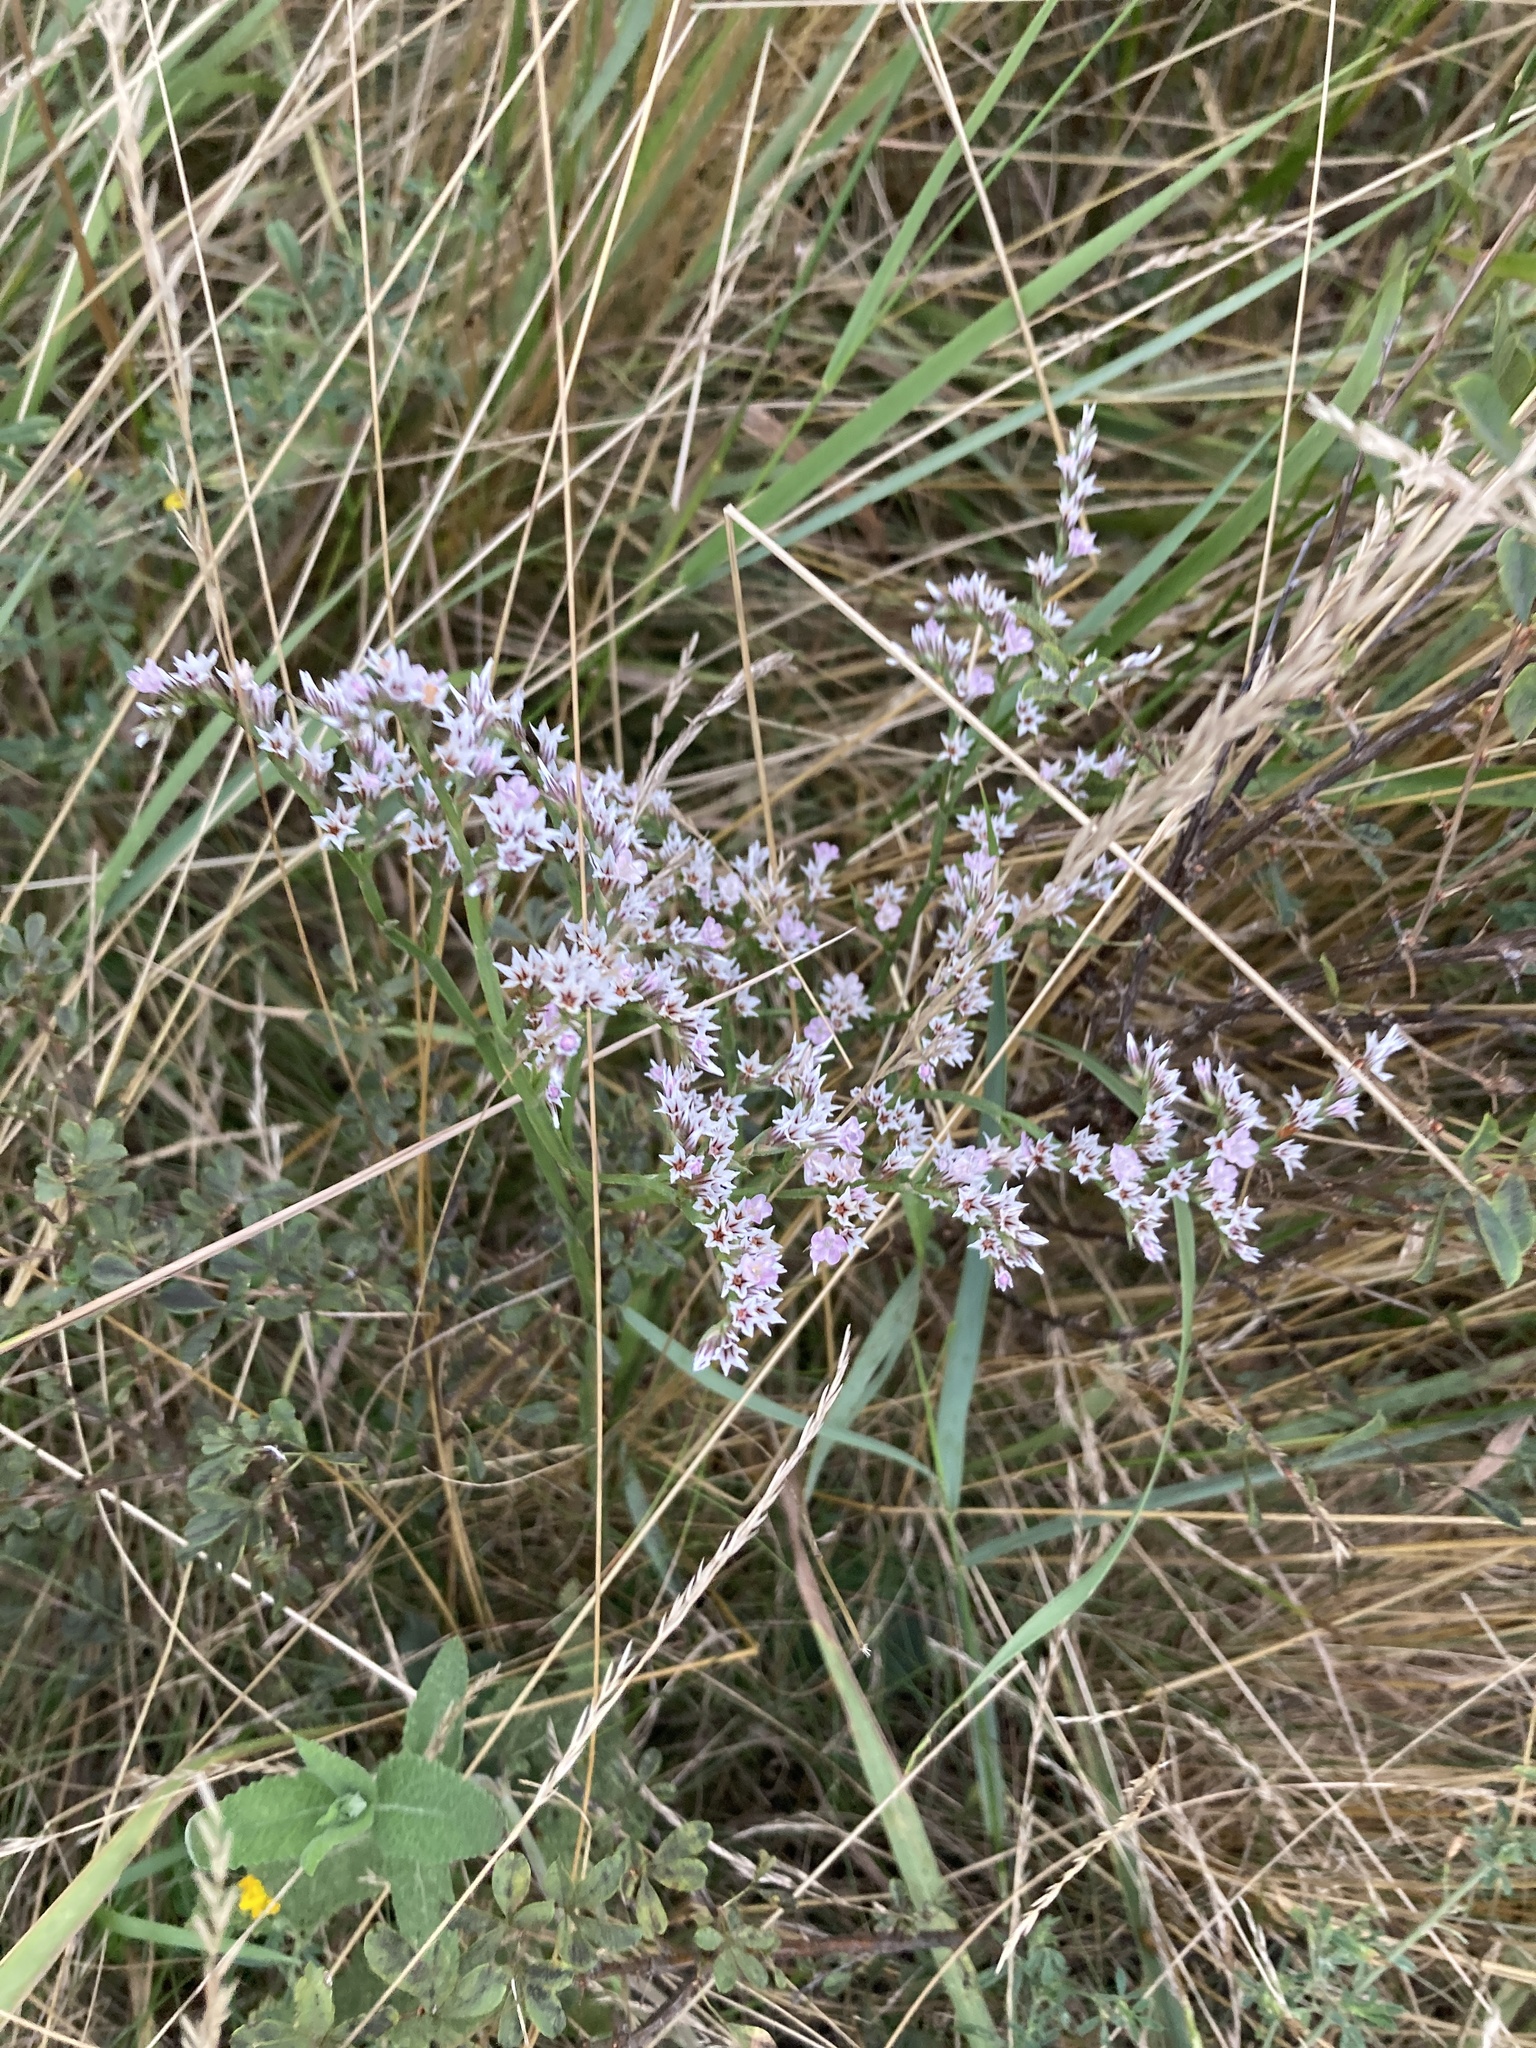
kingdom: Plantae
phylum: Tracheophyta
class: Magnoliopsida
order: Caryophyllales
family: Plumbaginaceae
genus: Goniolimon
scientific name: Goniolimon tataricum
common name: Statice
